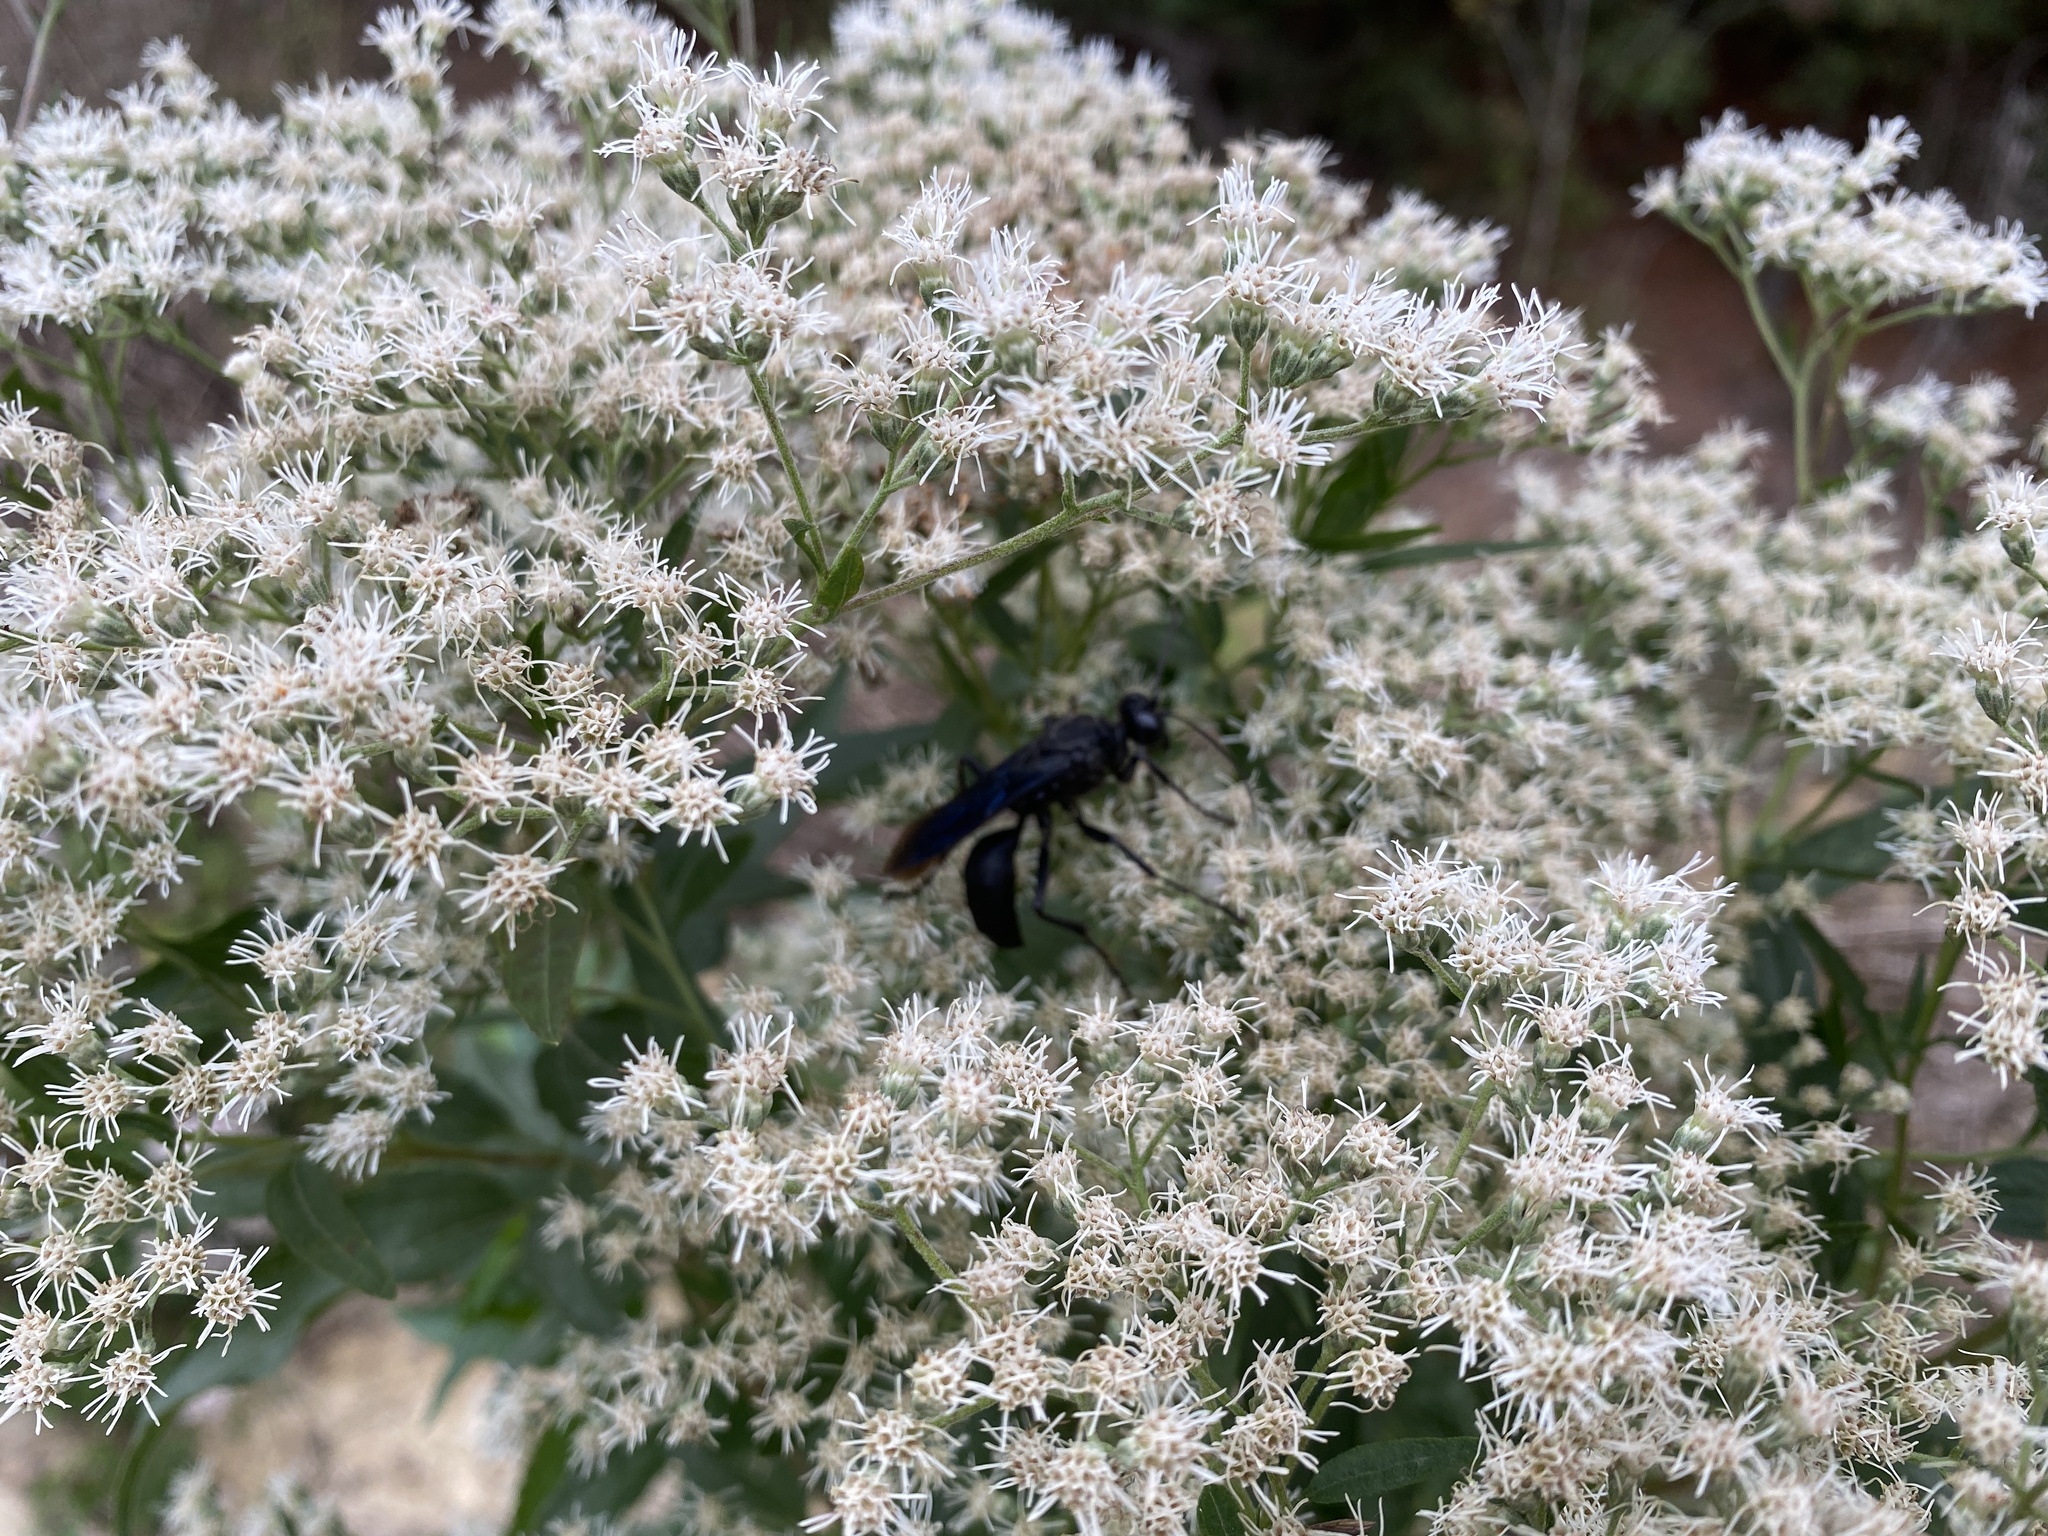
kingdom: Animalia
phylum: Arthropoda
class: Insecta
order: Hymenoptera
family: Sphecidae
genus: Sphex
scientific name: Sphex pensylvanicus
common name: Great black digger wasp
